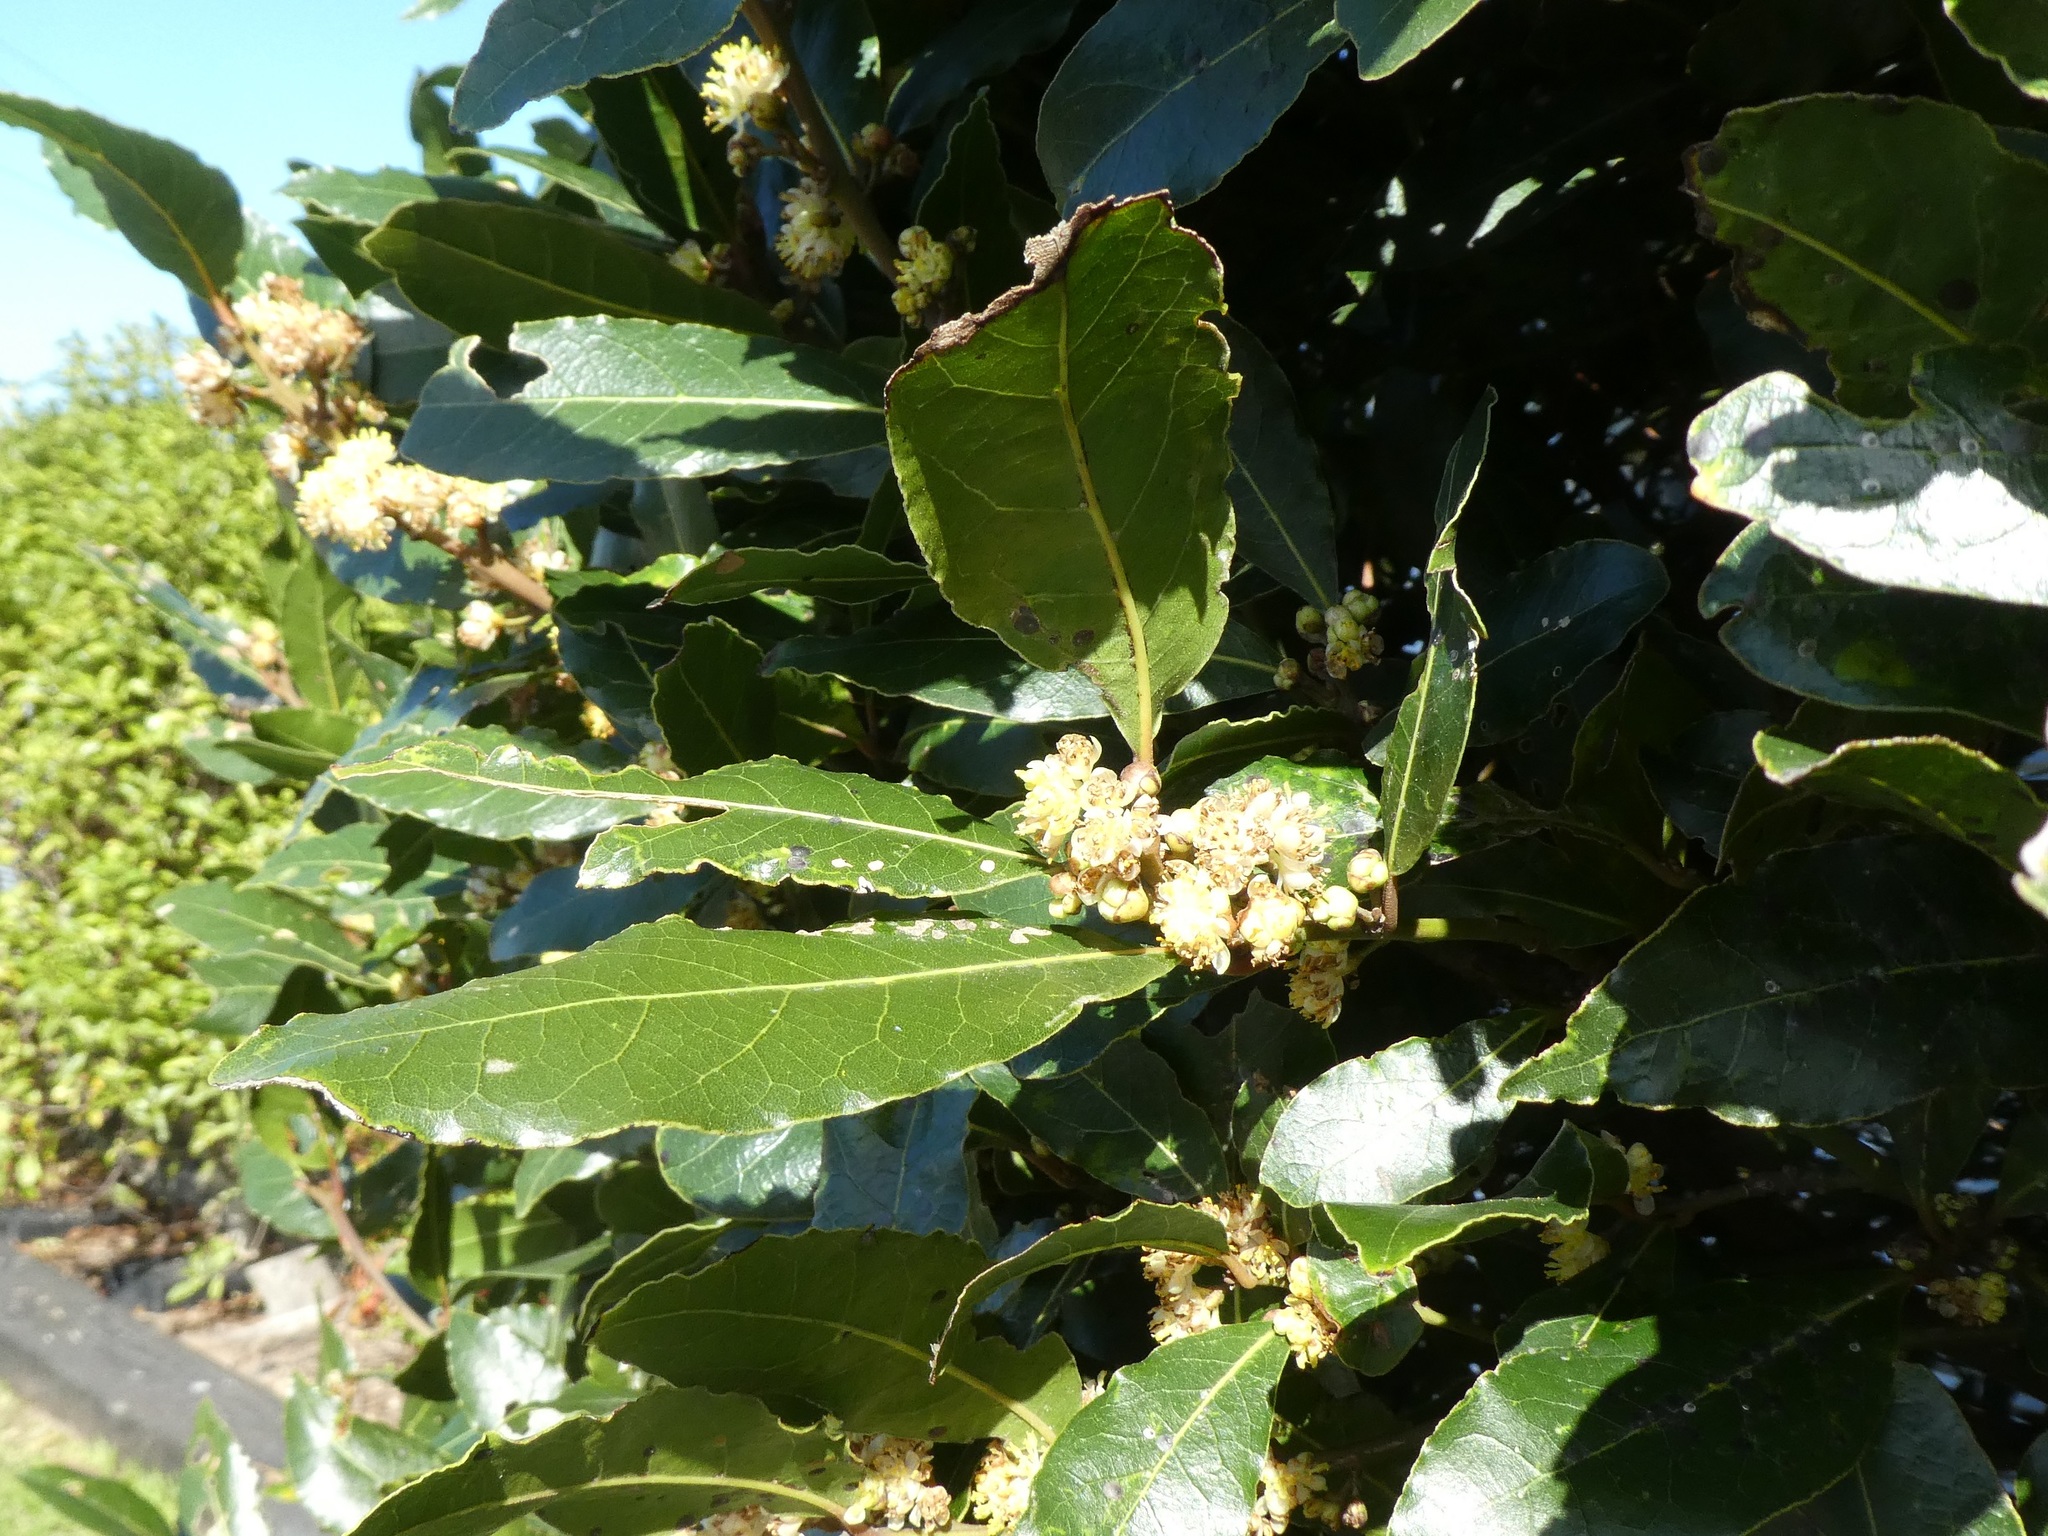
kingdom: Animalia
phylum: Arthropoda
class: Insecta
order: Hemiptera
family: Diaspididae
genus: Lindingaspis
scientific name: Lindingaspis rossi
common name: Araucaria black scale
